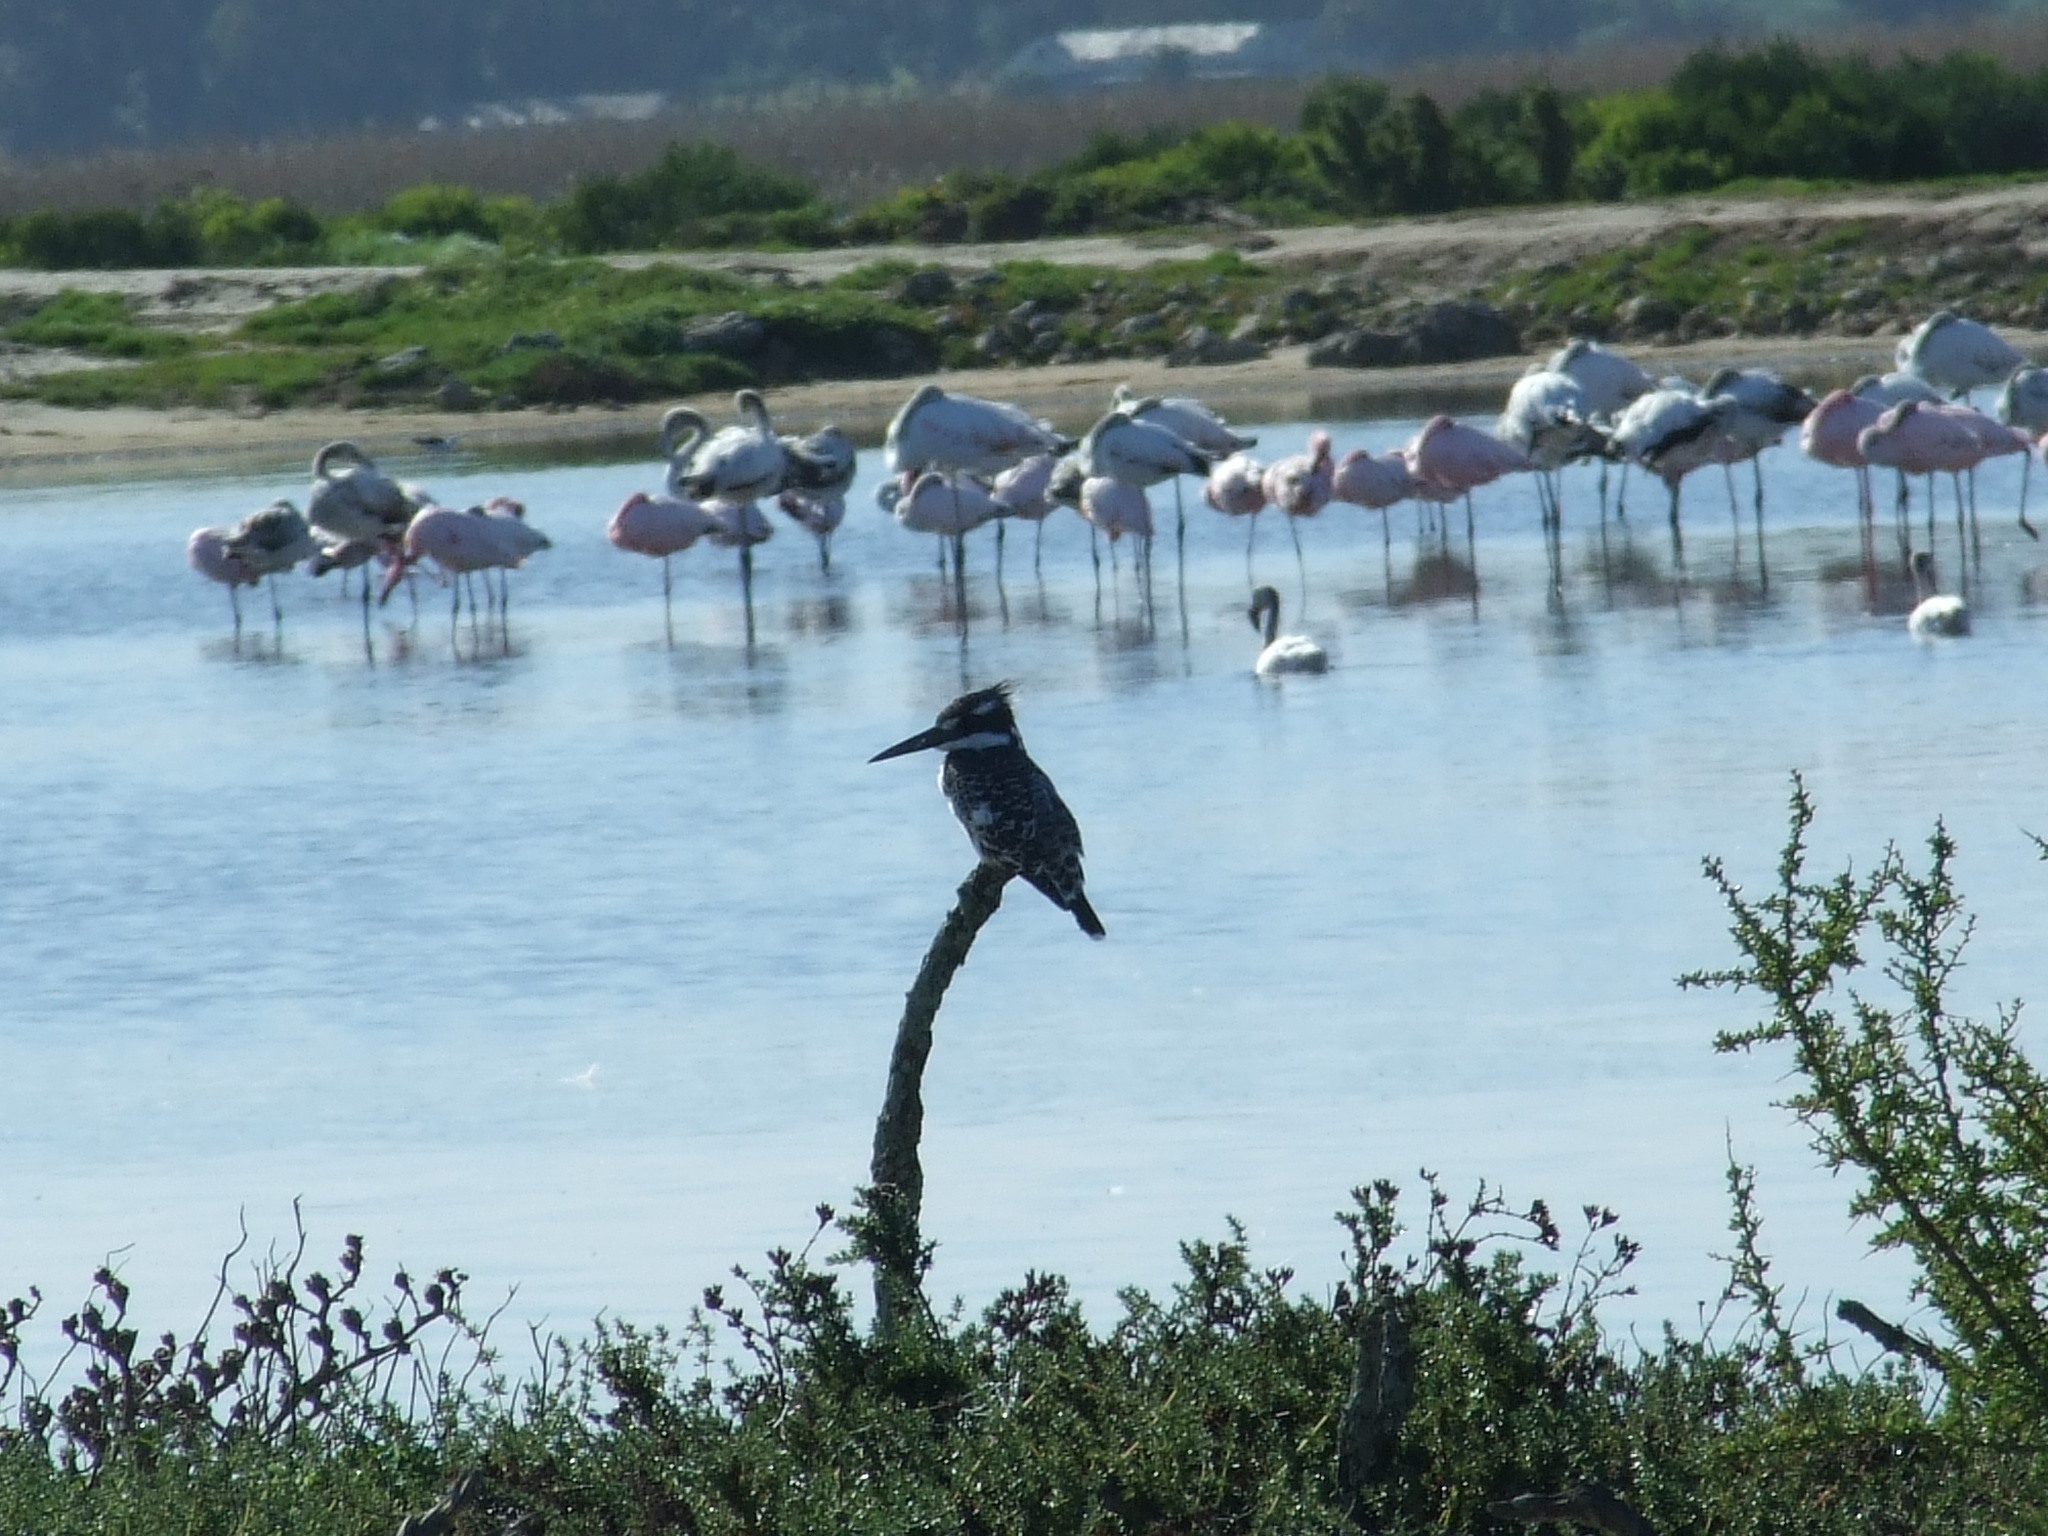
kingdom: Animalia
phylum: Chordata
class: Aves
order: Coraciiformes
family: Alcedinidae
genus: Ceryle
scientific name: Ceryle rudis
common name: Pied kingfisher
